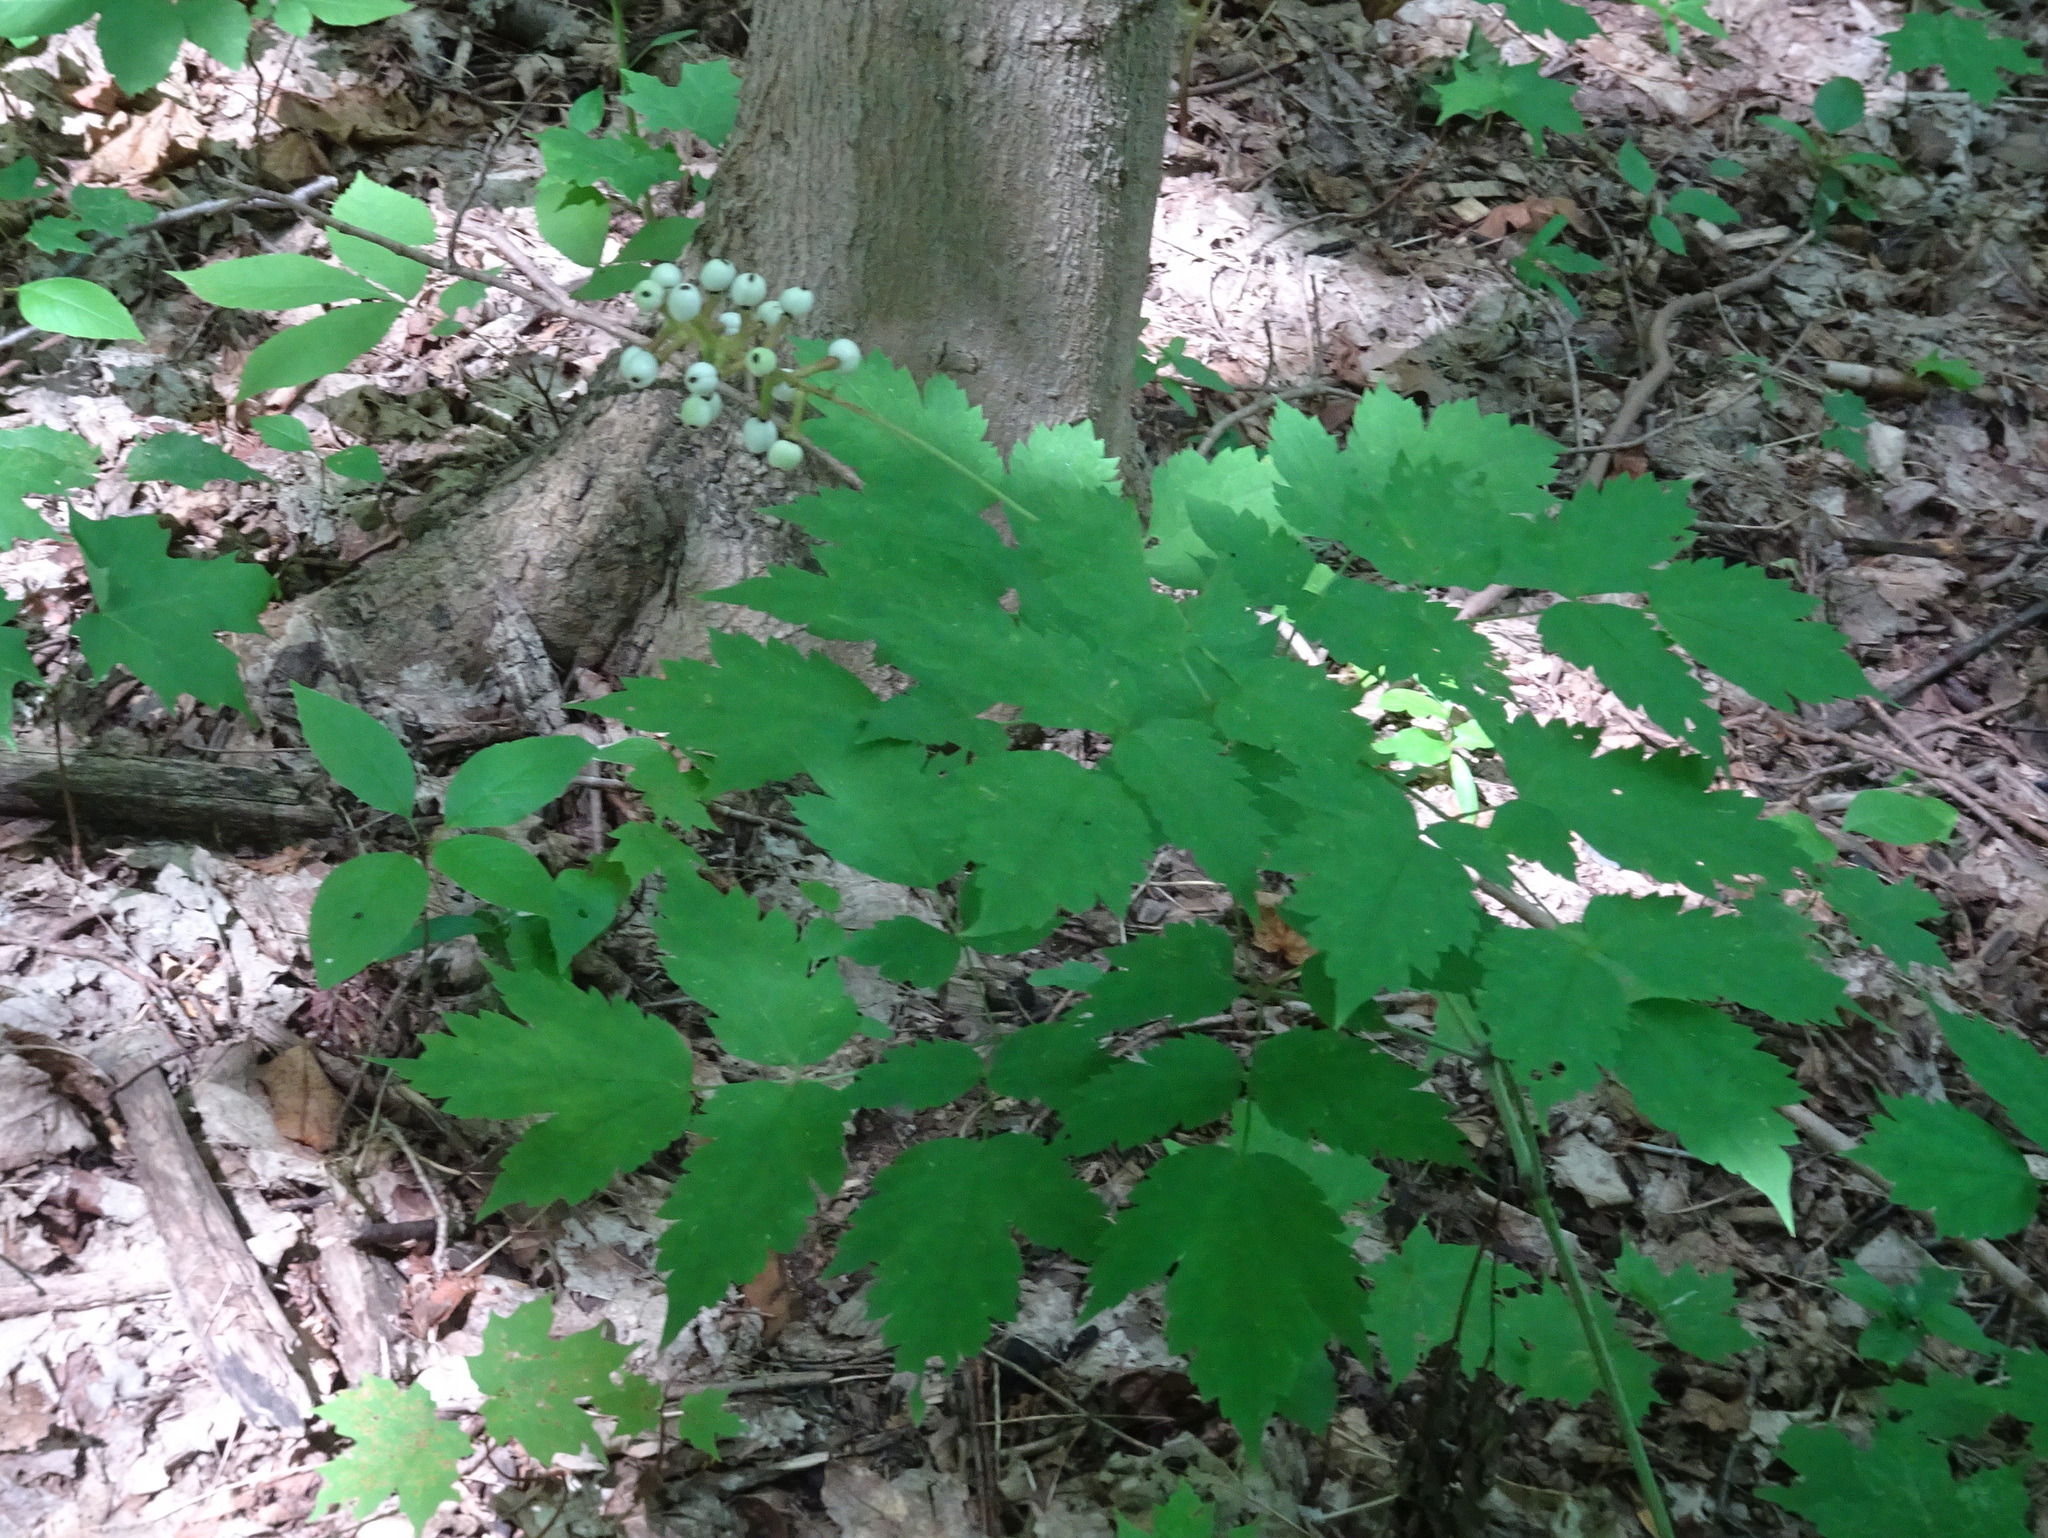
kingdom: Plantae
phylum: Tracheophyta
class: Magnoliopsida
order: Ranunculales
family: Ranunculaceae
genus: Actaea
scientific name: Actaea pachypoda
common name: Doll's-eyes
